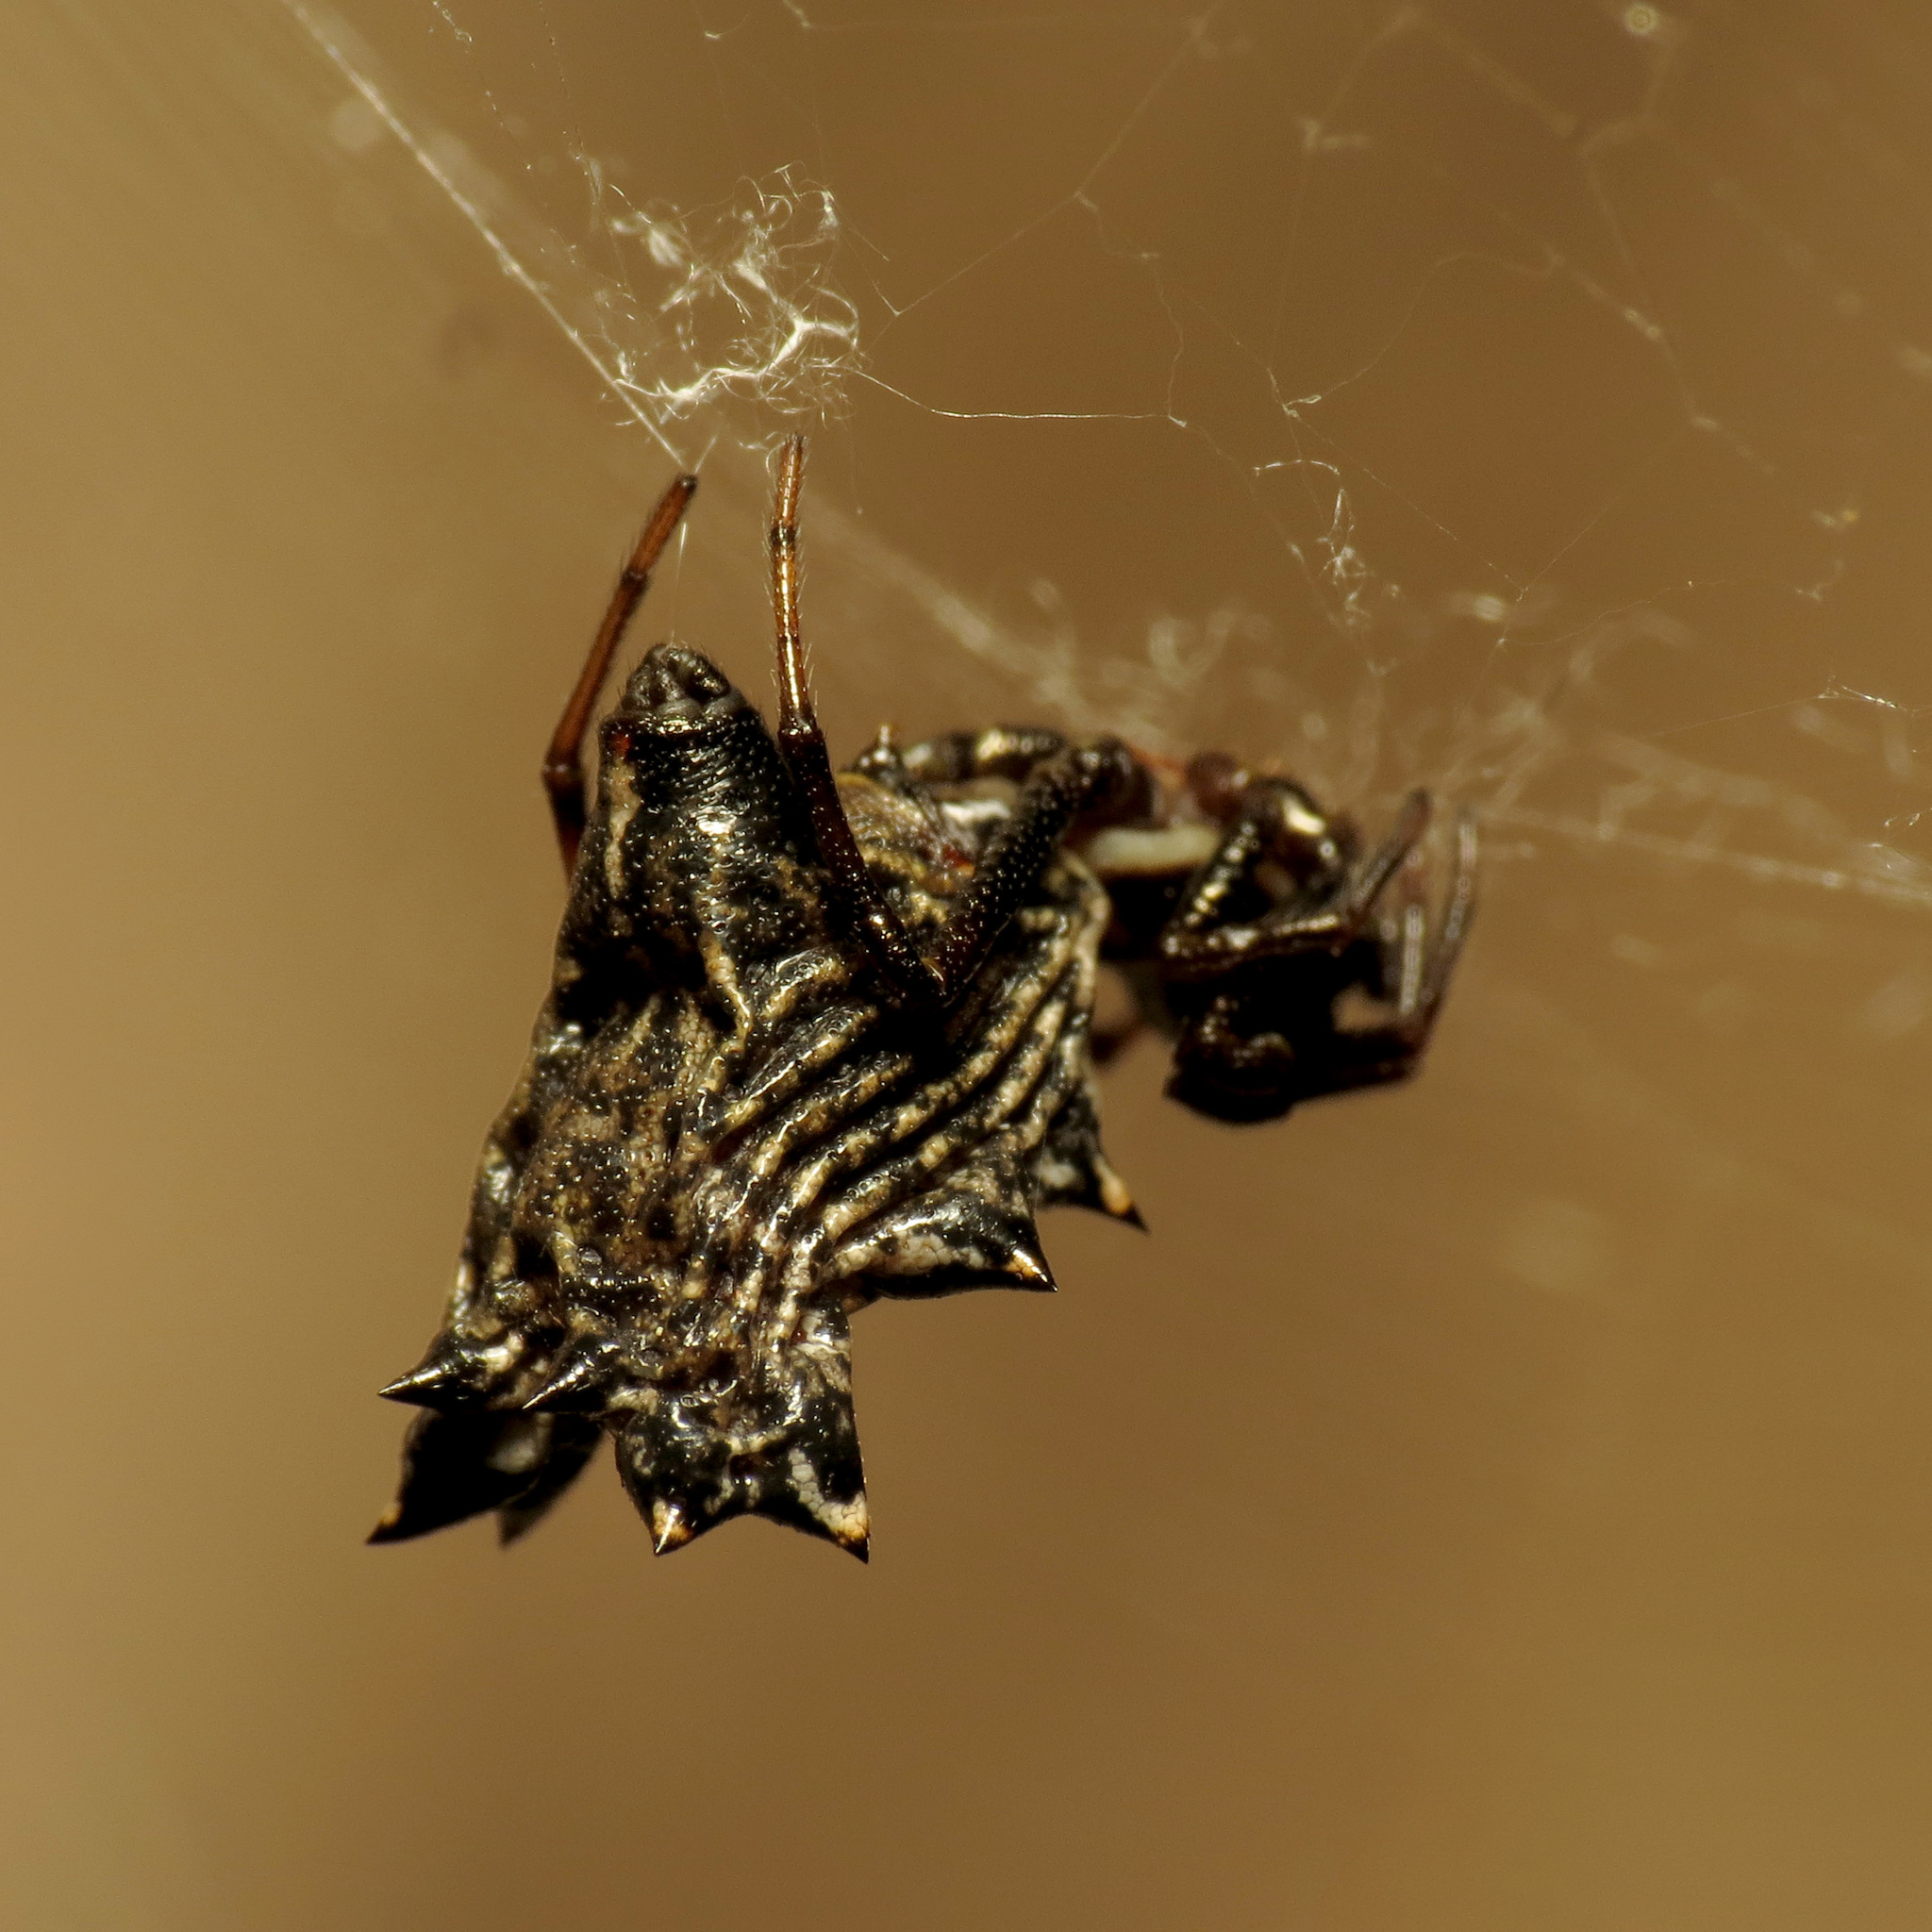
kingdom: Animalia
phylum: Arthropoda
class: Arachnida
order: Araneae
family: Araneidae
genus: Micrathena
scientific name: Micrathena gracilis
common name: Orb weavers
